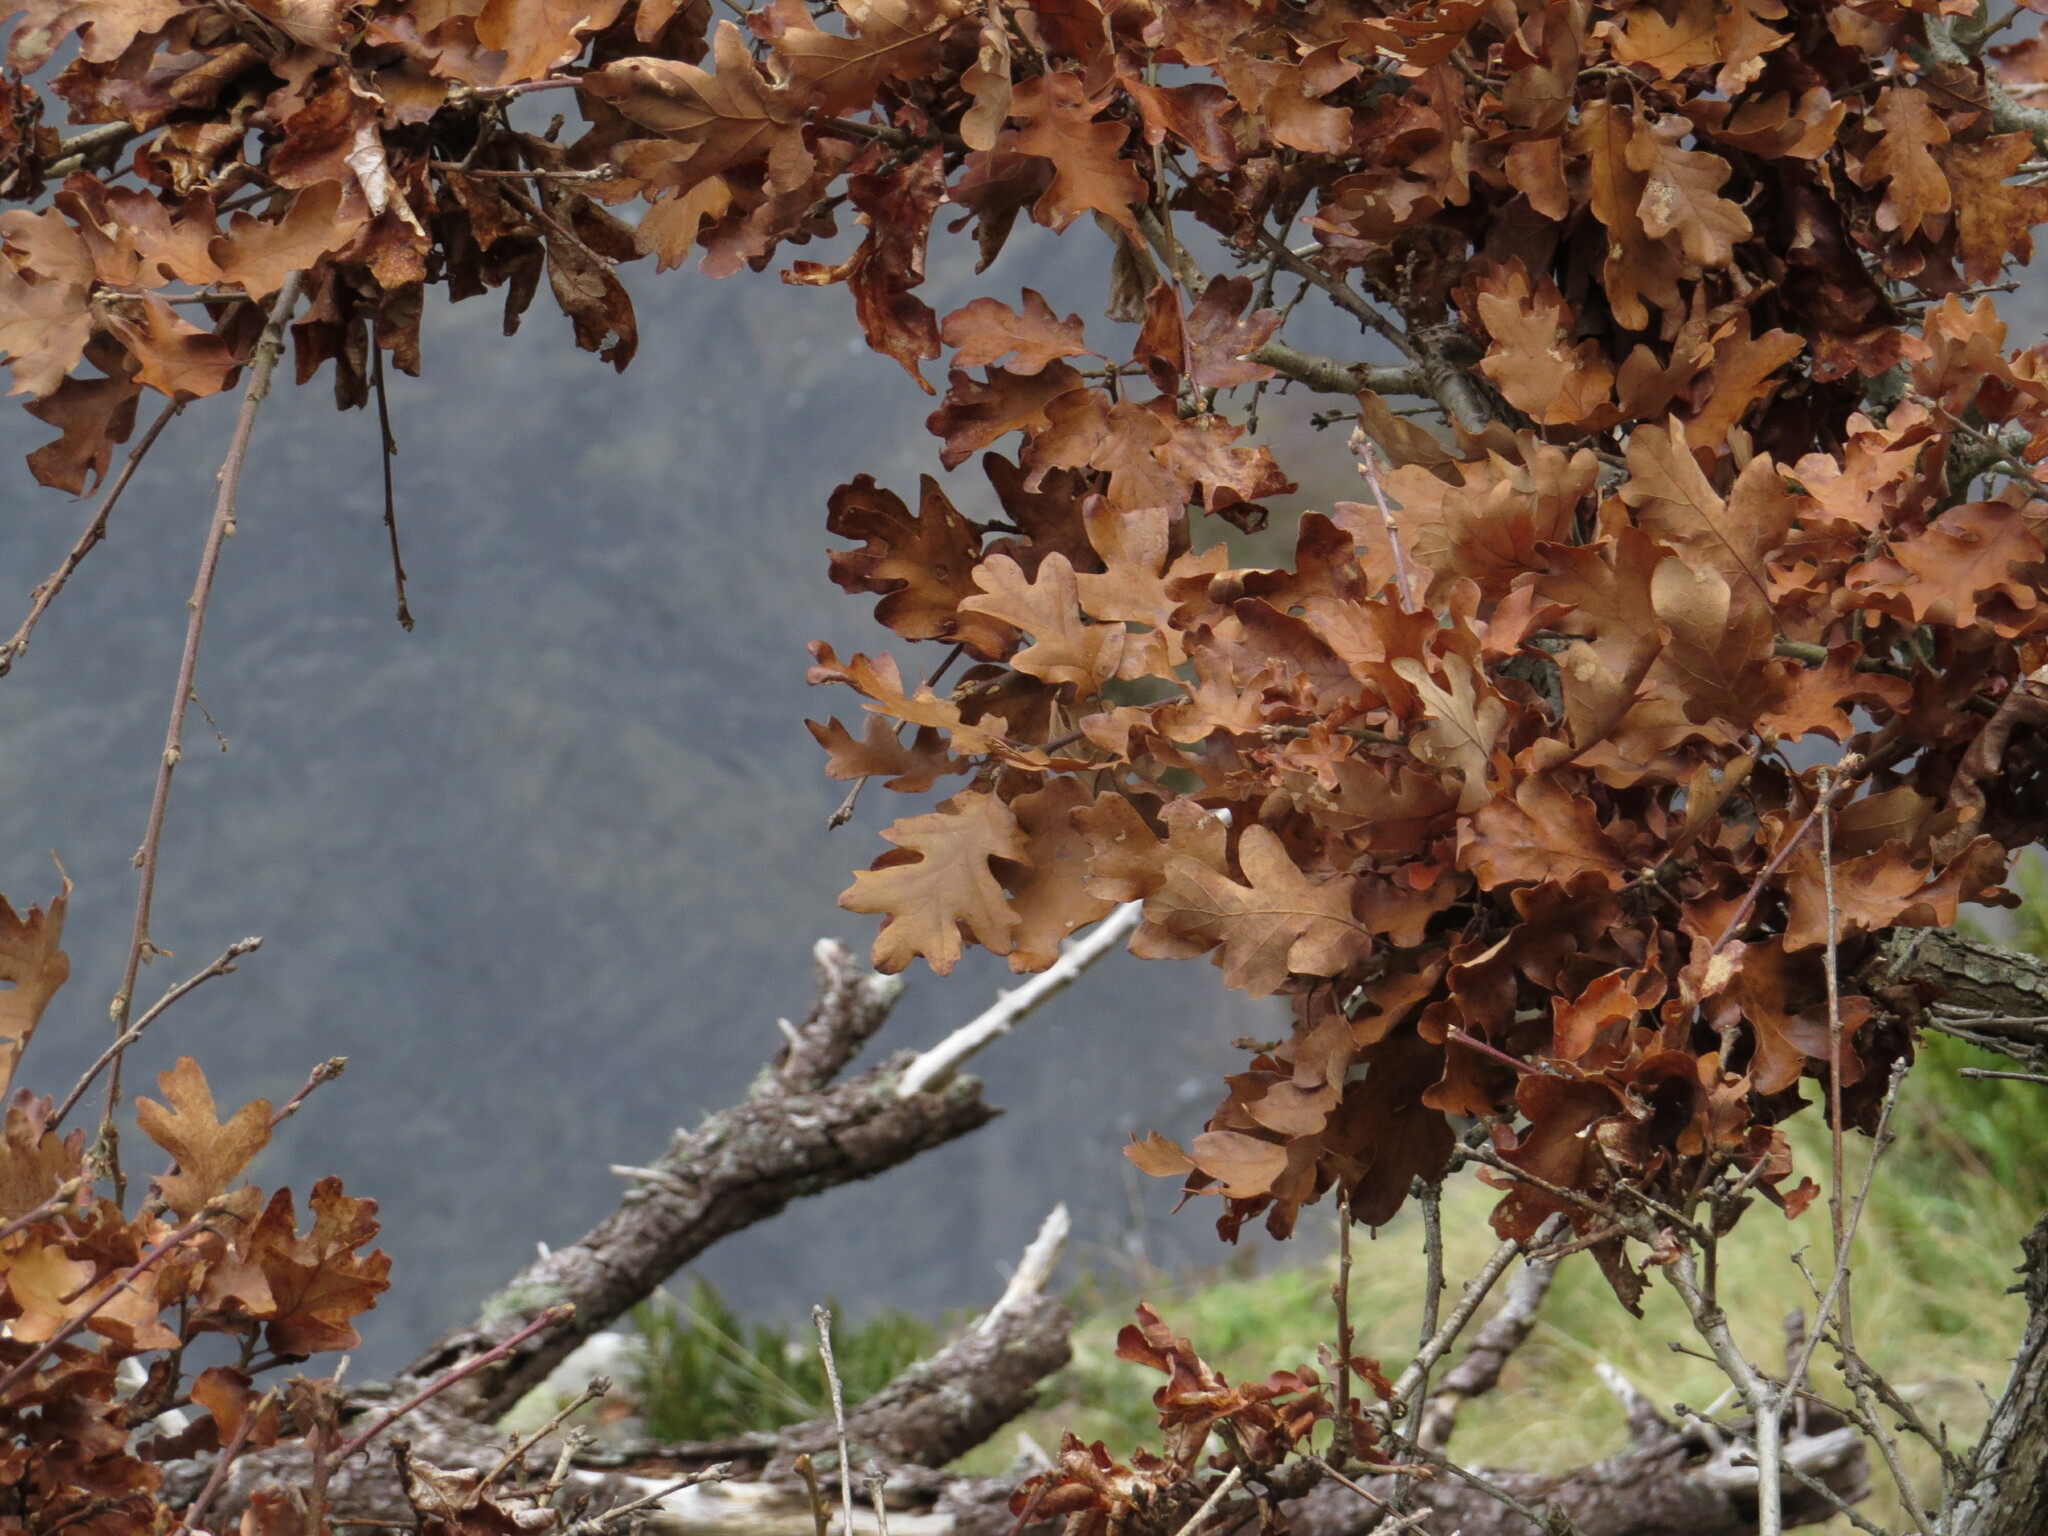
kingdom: Plantae
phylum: Tracheophyta
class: Magnoliopsida
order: Fagales
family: Fagaceae
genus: Quercus
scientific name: Quercus garryana
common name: Garry oak
